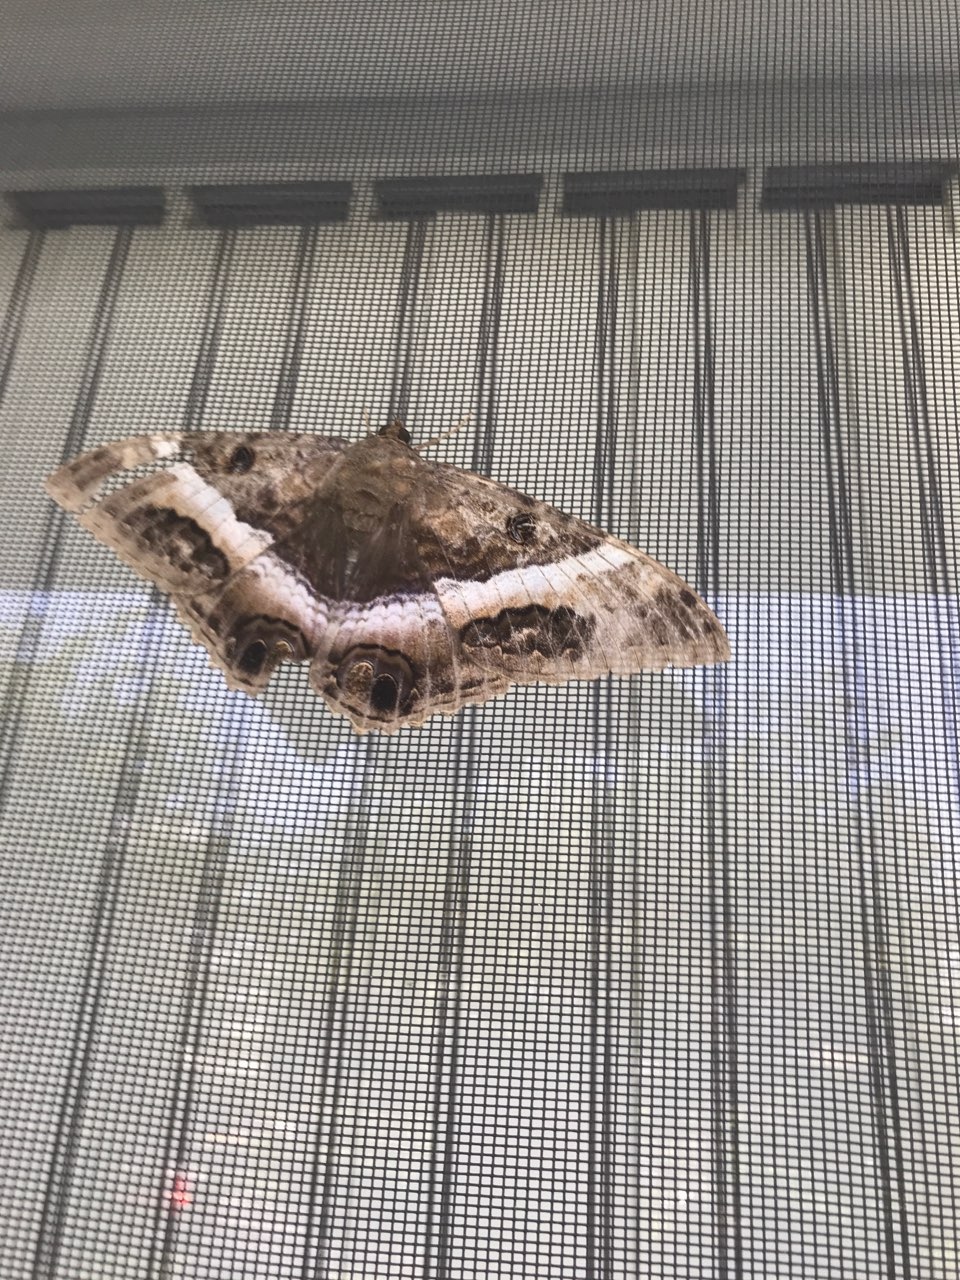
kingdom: Animalia
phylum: Arthropoda
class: Insecta
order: Lepidoptera
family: Erebidae
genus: Ascalapha
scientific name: Ascalapha odorata
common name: Black witch
